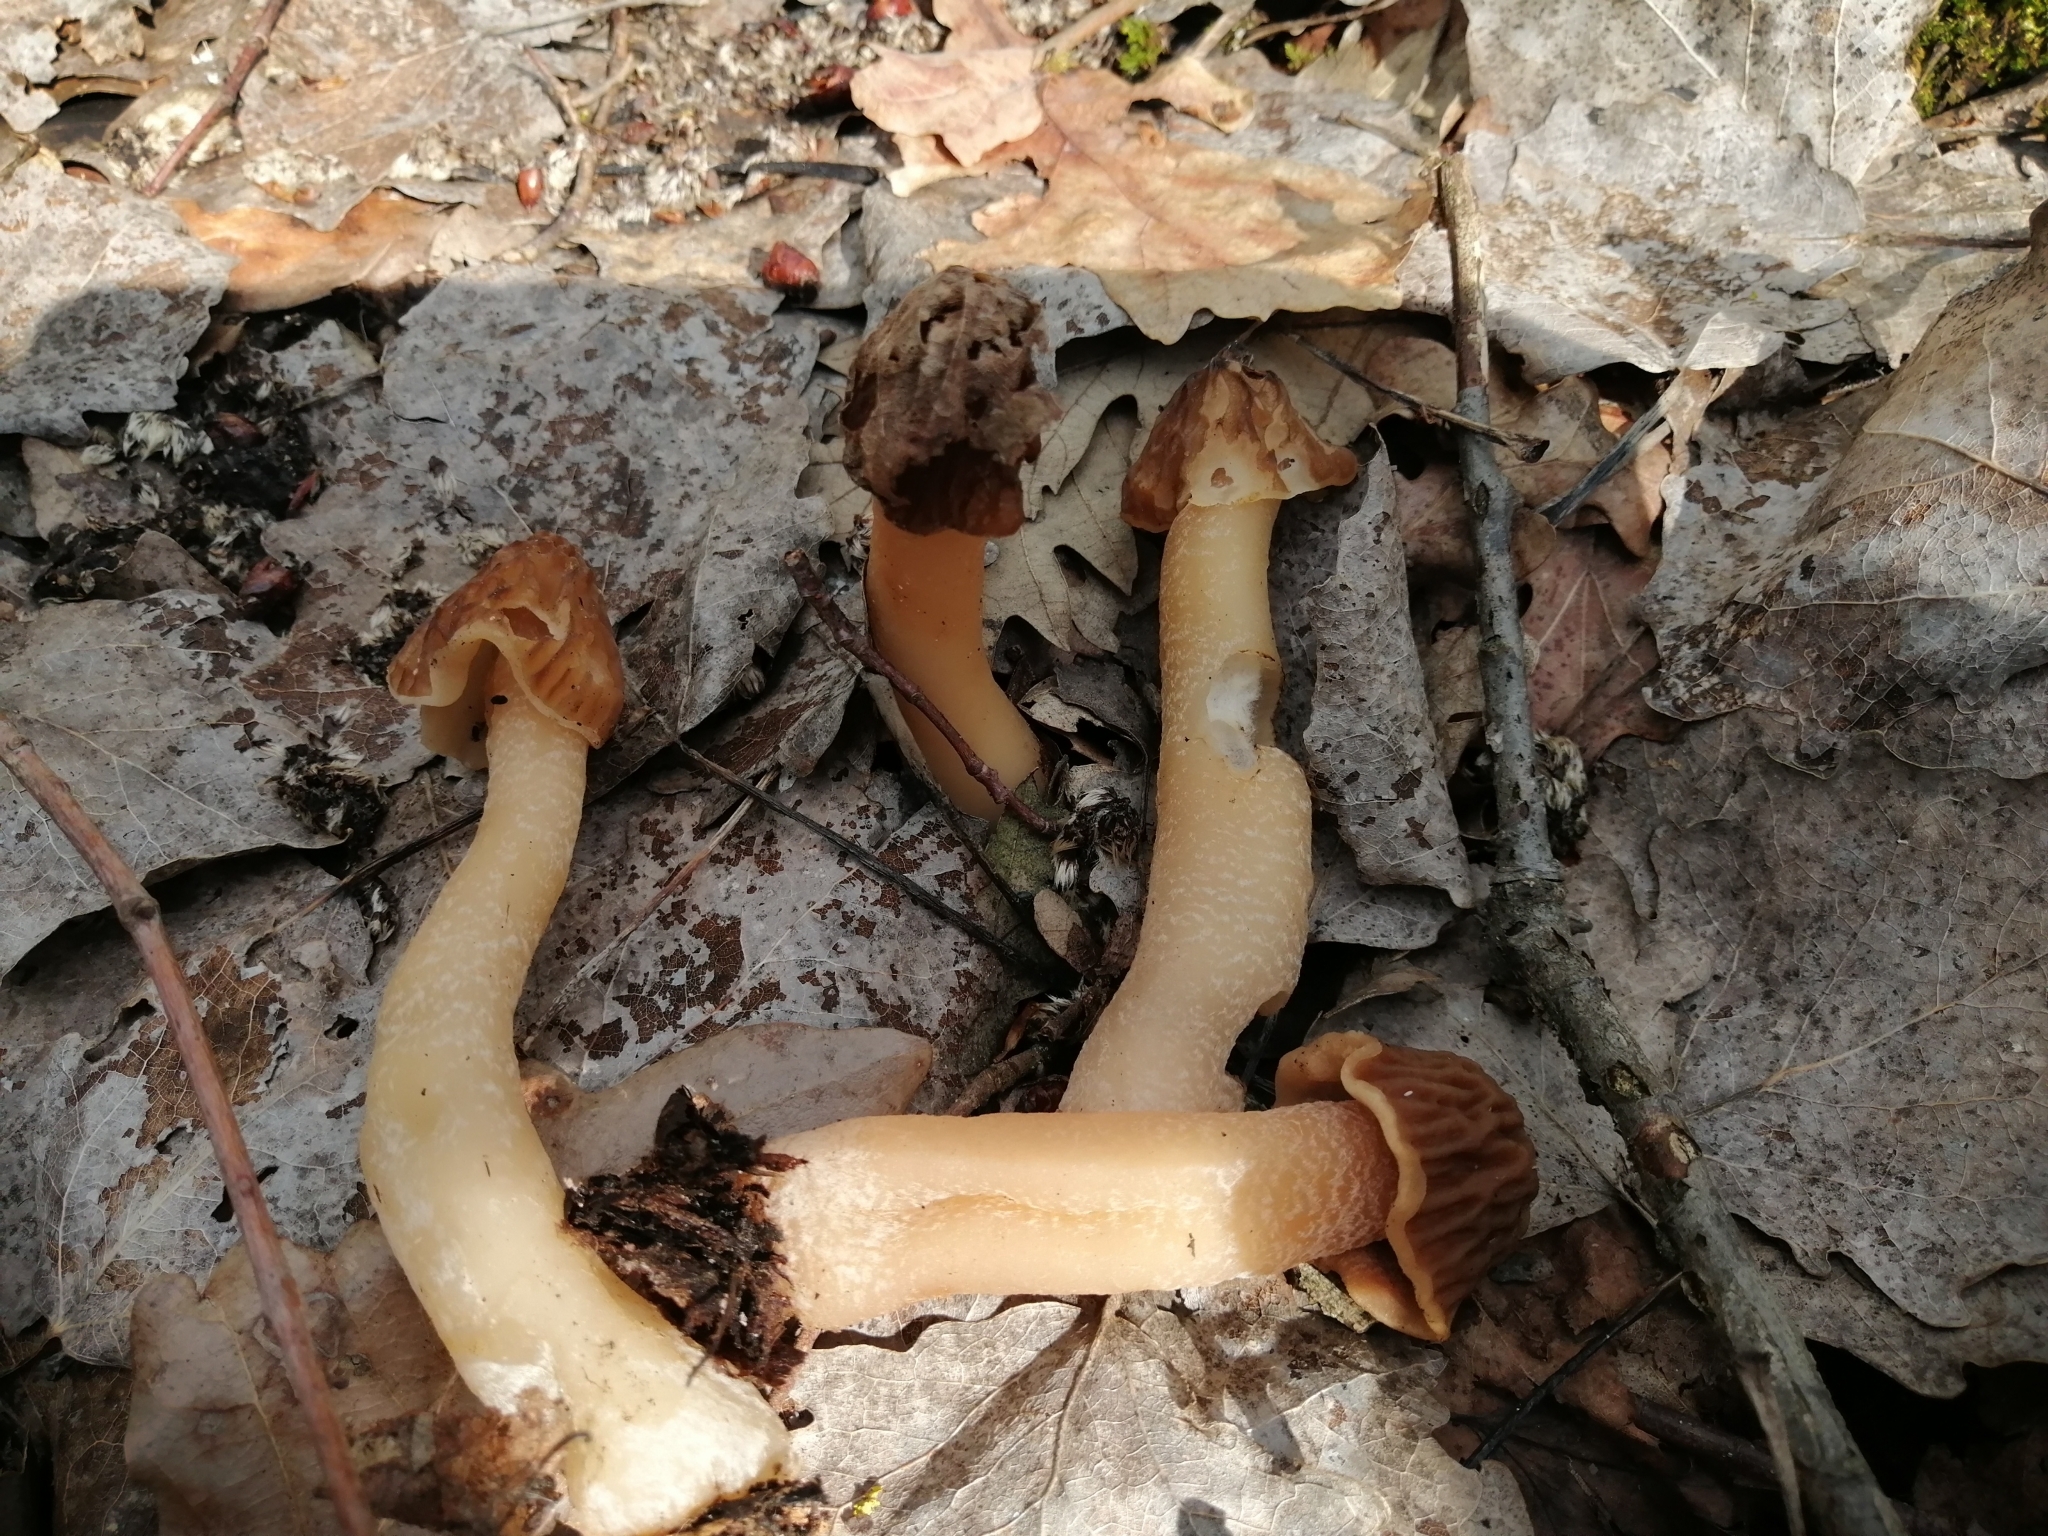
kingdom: Fungi
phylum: Ascomycota
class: Pezizomycetes
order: Pezizales
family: Morchellaceae
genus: Verpa
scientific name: Verpa bohemica
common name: Wrinkled thimble morel
